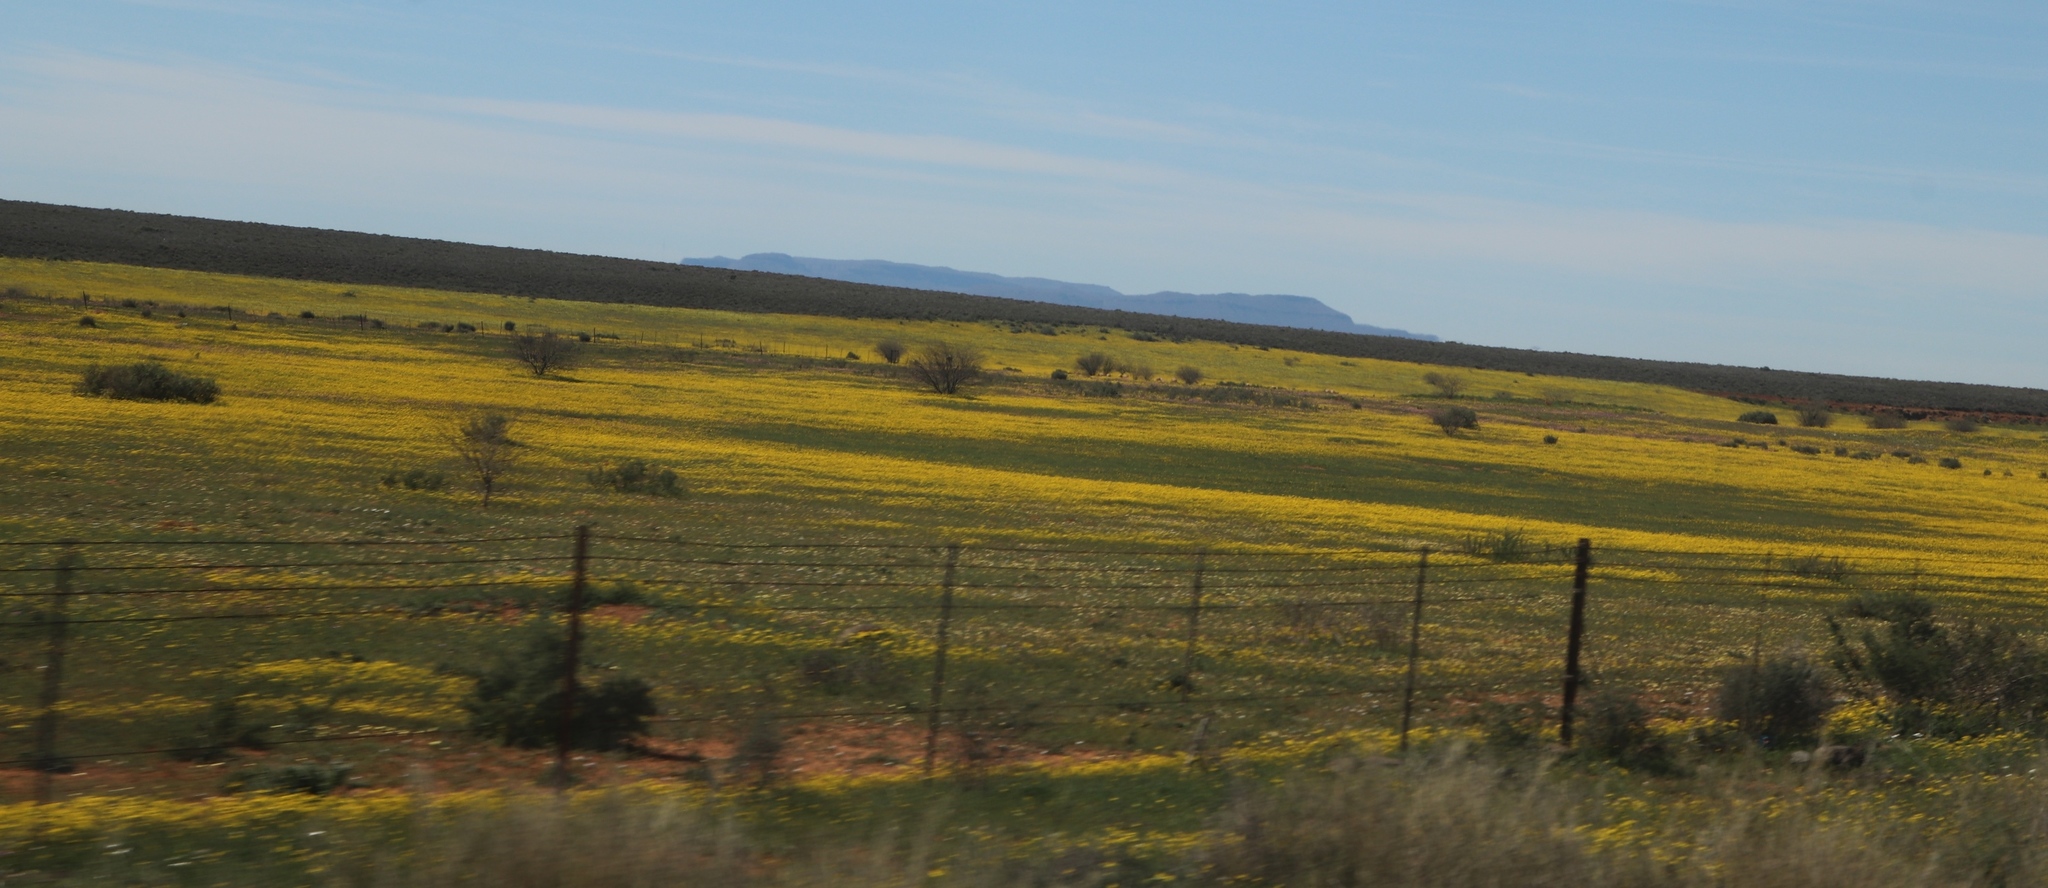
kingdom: Plantae
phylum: Tracheophyta
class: Magnoliopsida
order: Asterales
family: Asteraceae
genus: Senecio
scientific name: Senecio abruptus
